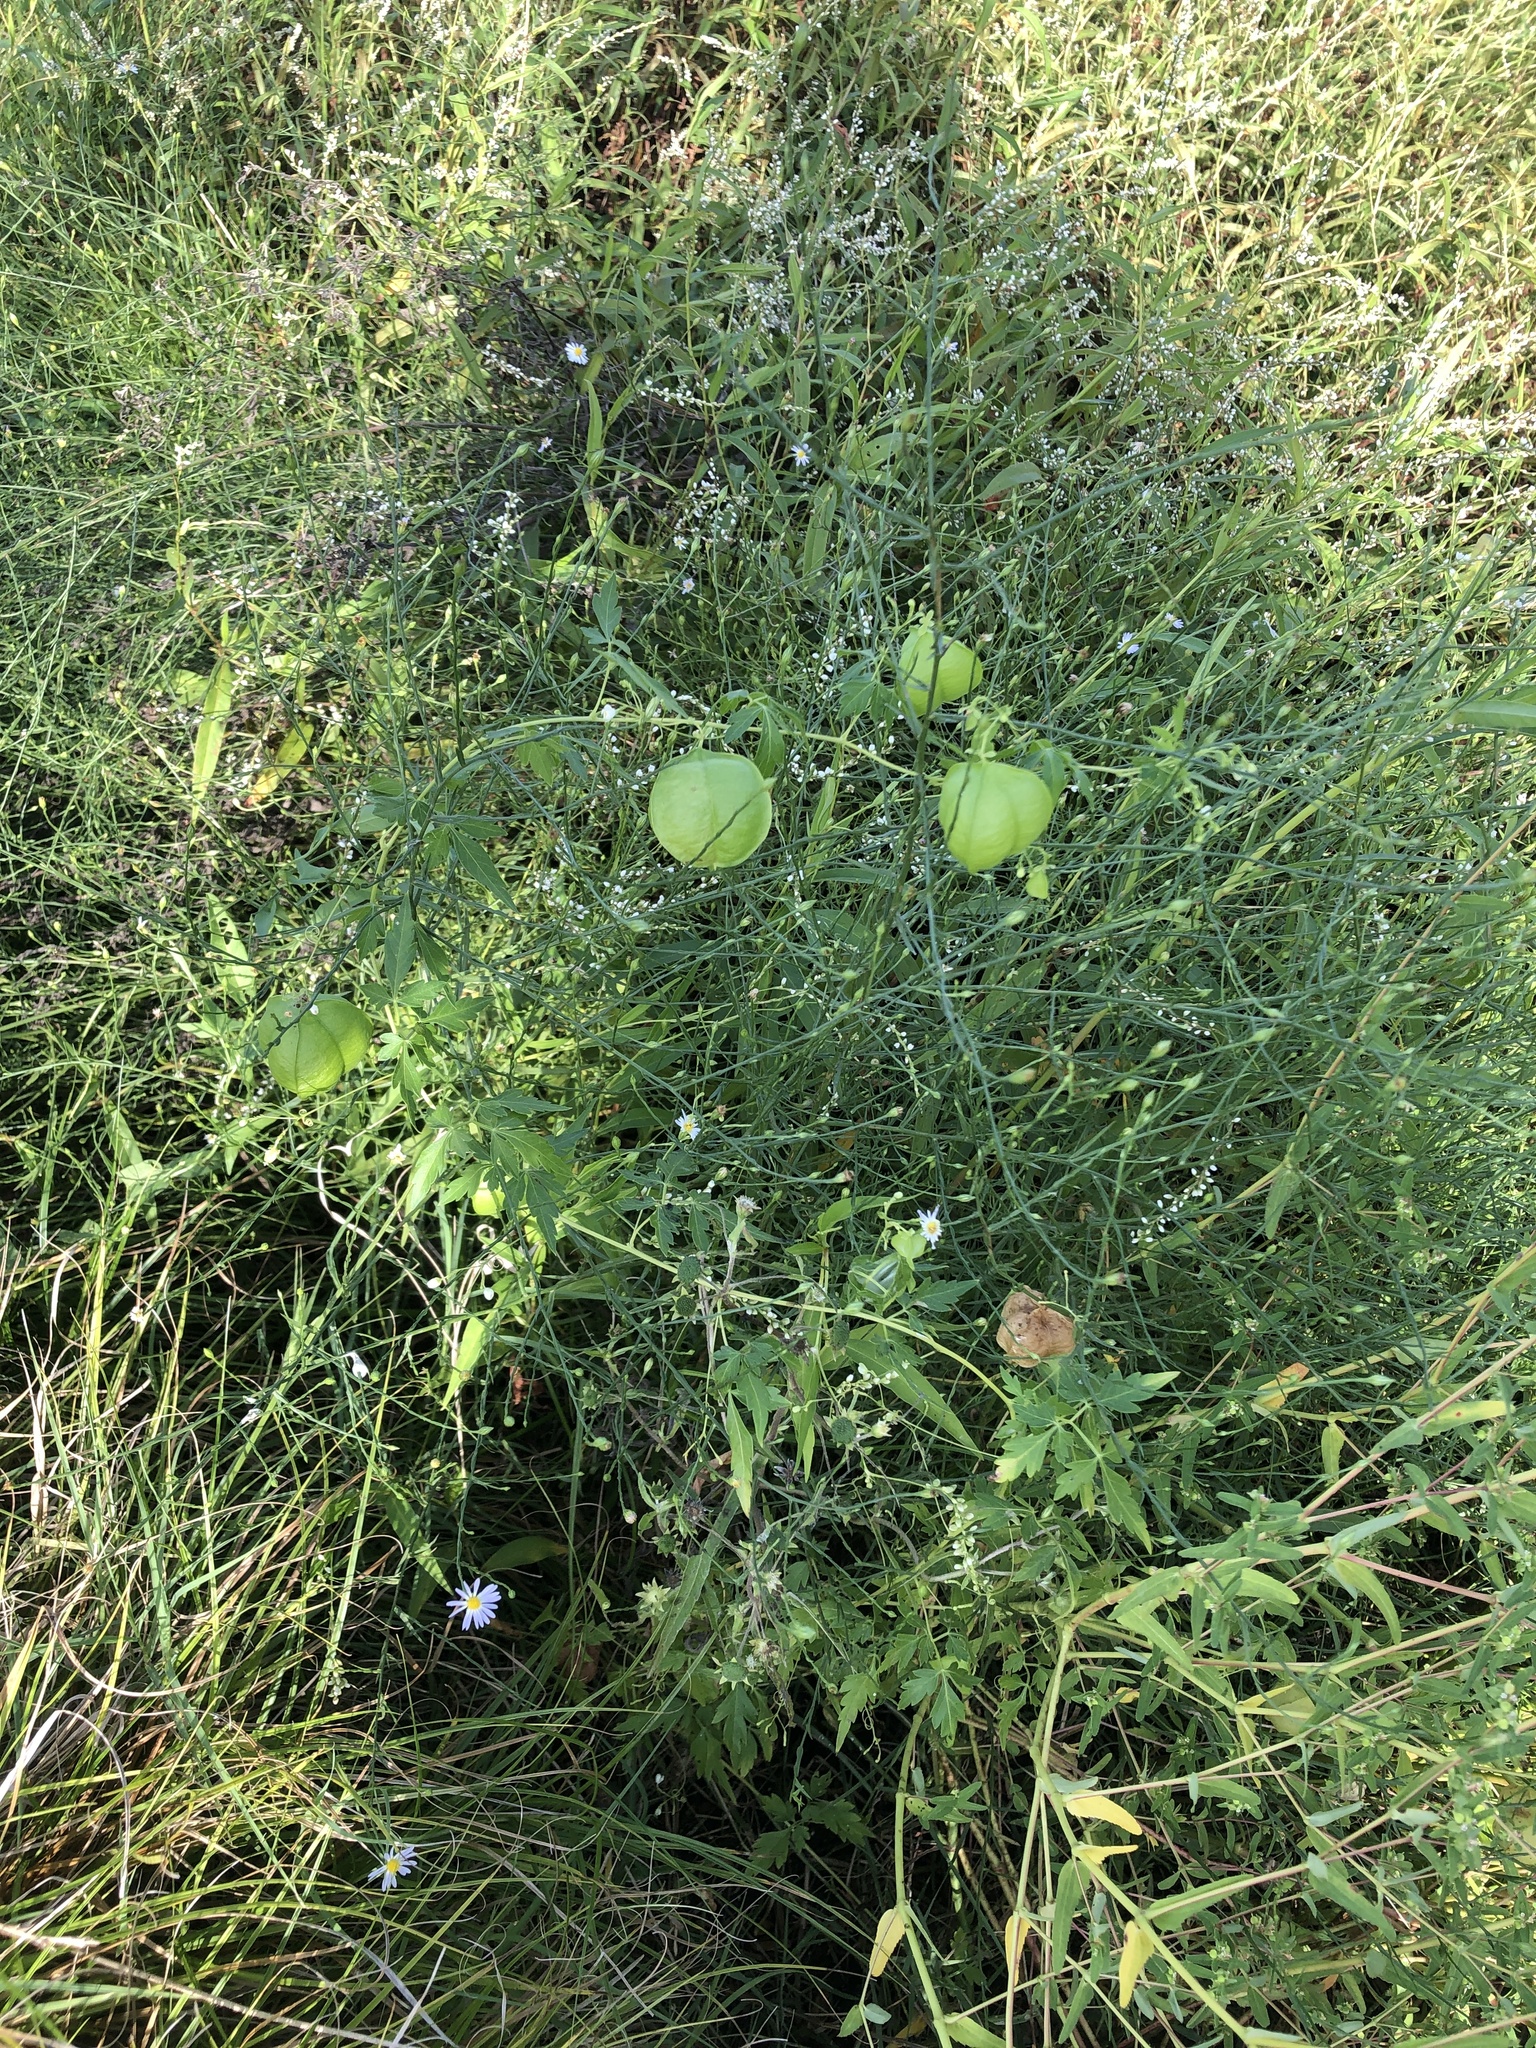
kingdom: Plantae
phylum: Tracheophyta
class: Magnoliopsida
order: Sapindales
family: Sapindaceae
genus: Cardiospermum
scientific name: Cardiospermum halicacabum
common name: Balloon vine
